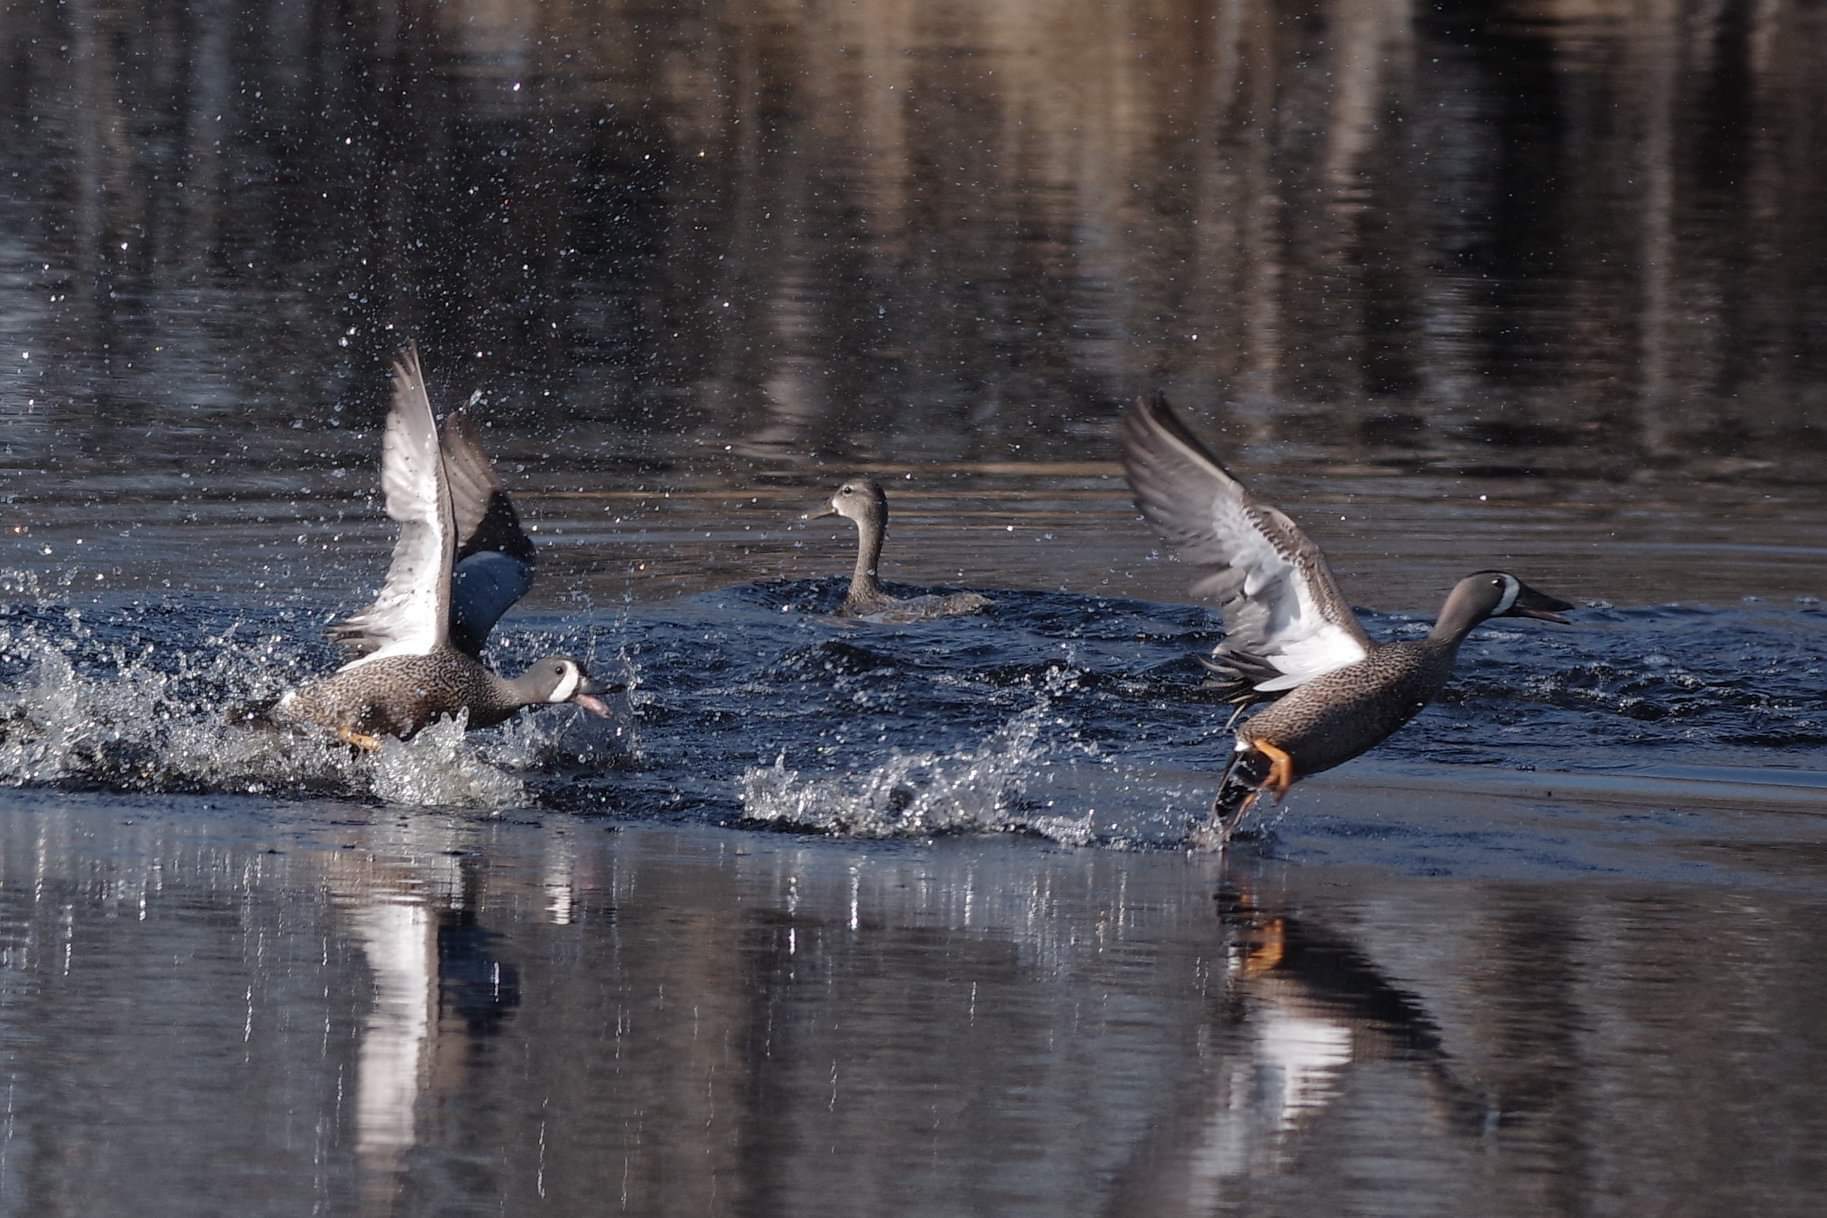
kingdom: Animalia
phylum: Chordata
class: Aves
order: Anseriformes
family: Anatidae
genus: Spatula
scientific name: Spatula discors
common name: Blue-winged teal
